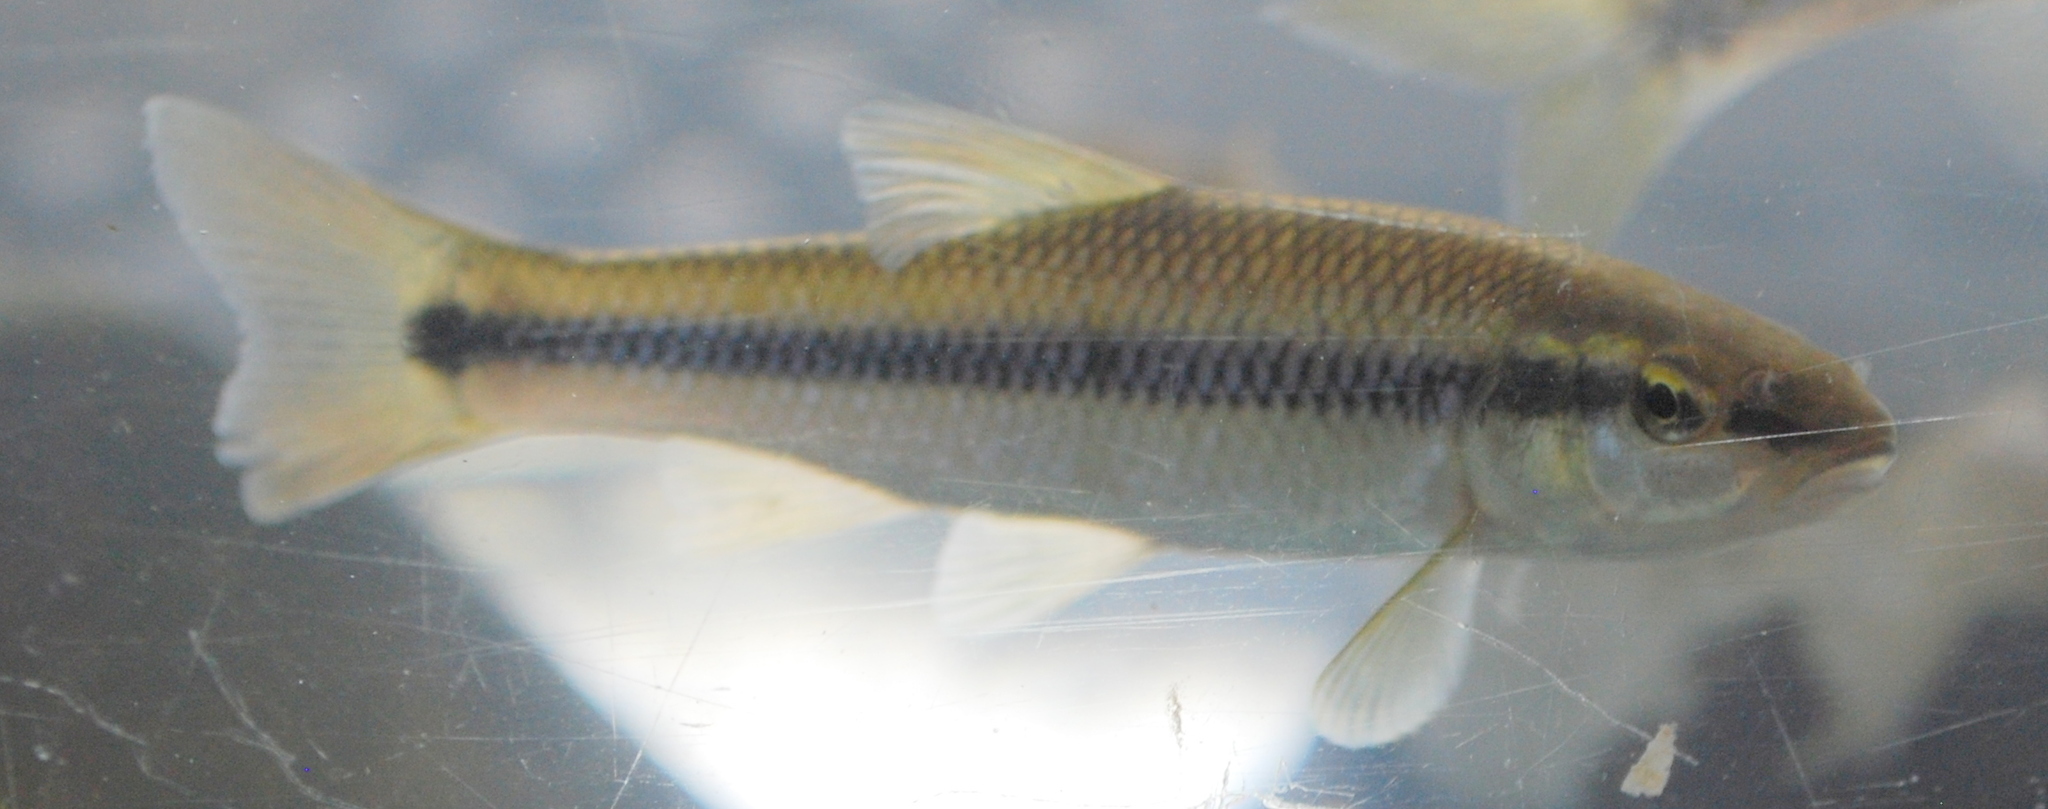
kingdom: Animalia
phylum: Chordata
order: Cypriniformes
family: Cyprinidae
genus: Nocomis
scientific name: Nocomis biguttatus
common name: Hornyhead chub
